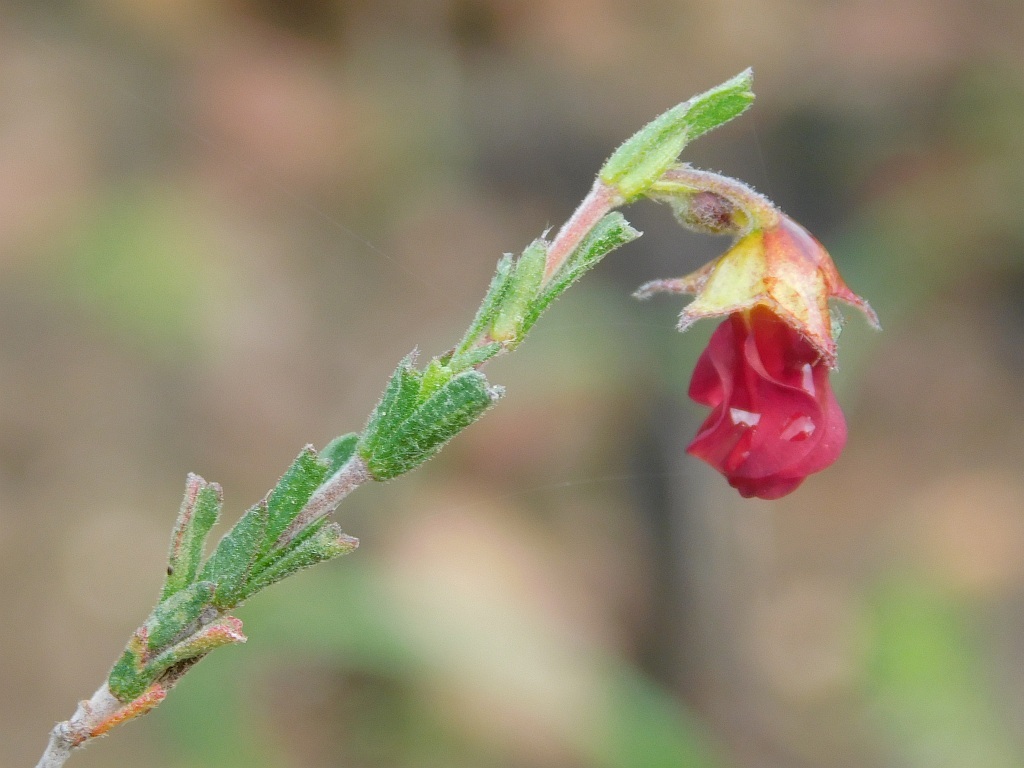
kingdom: Plantae
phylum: Tracheophyta
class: Magnoliopsida
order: Malvales
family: Malvaceae
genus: Hermannia
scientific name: Hermannia flammula
